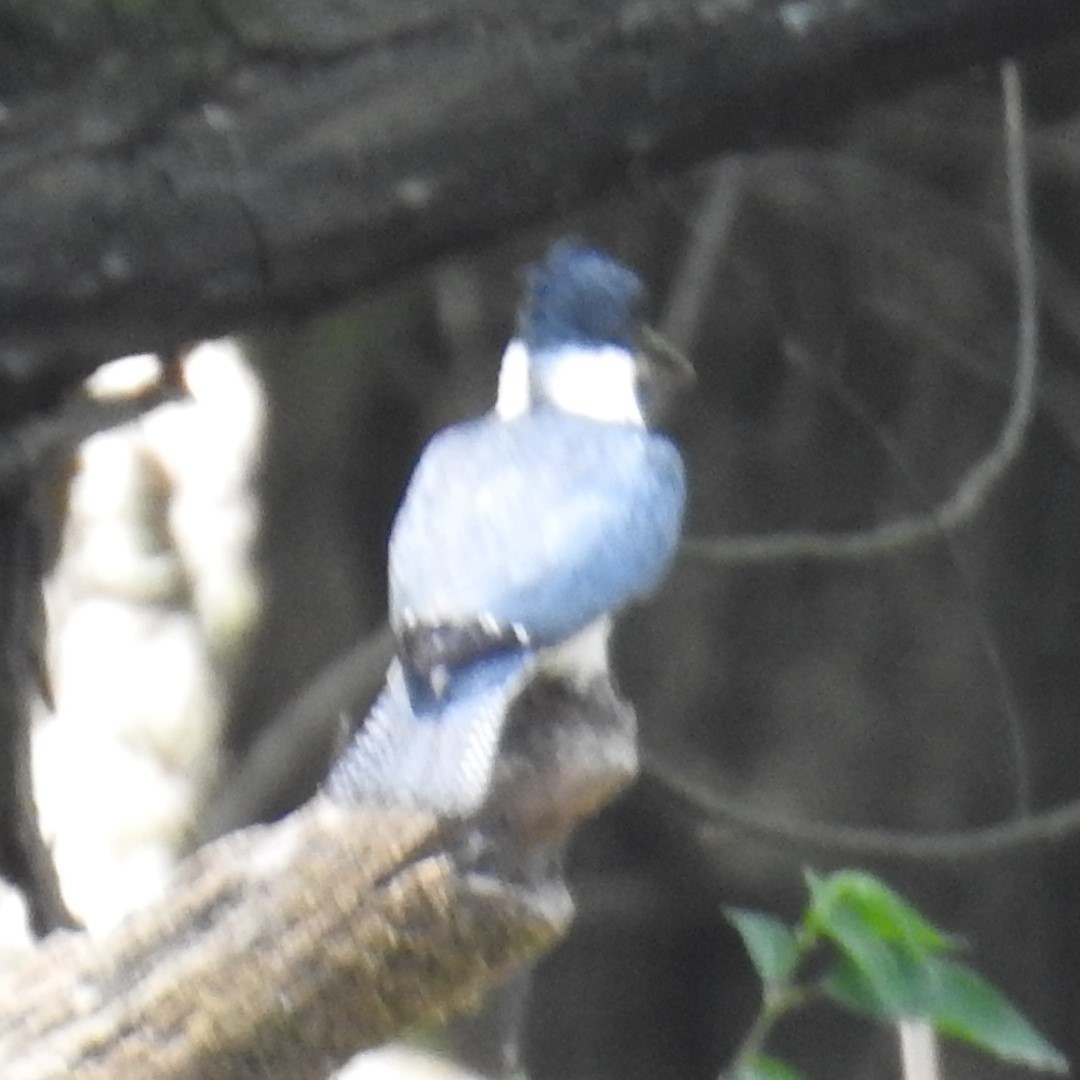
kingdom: Animalia
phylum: Chordata
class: Aves
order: Coraciiformes
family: Alcedinidae
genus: Megaceryle
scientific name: Megaceryle alcyon
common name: Belted kingfisher
